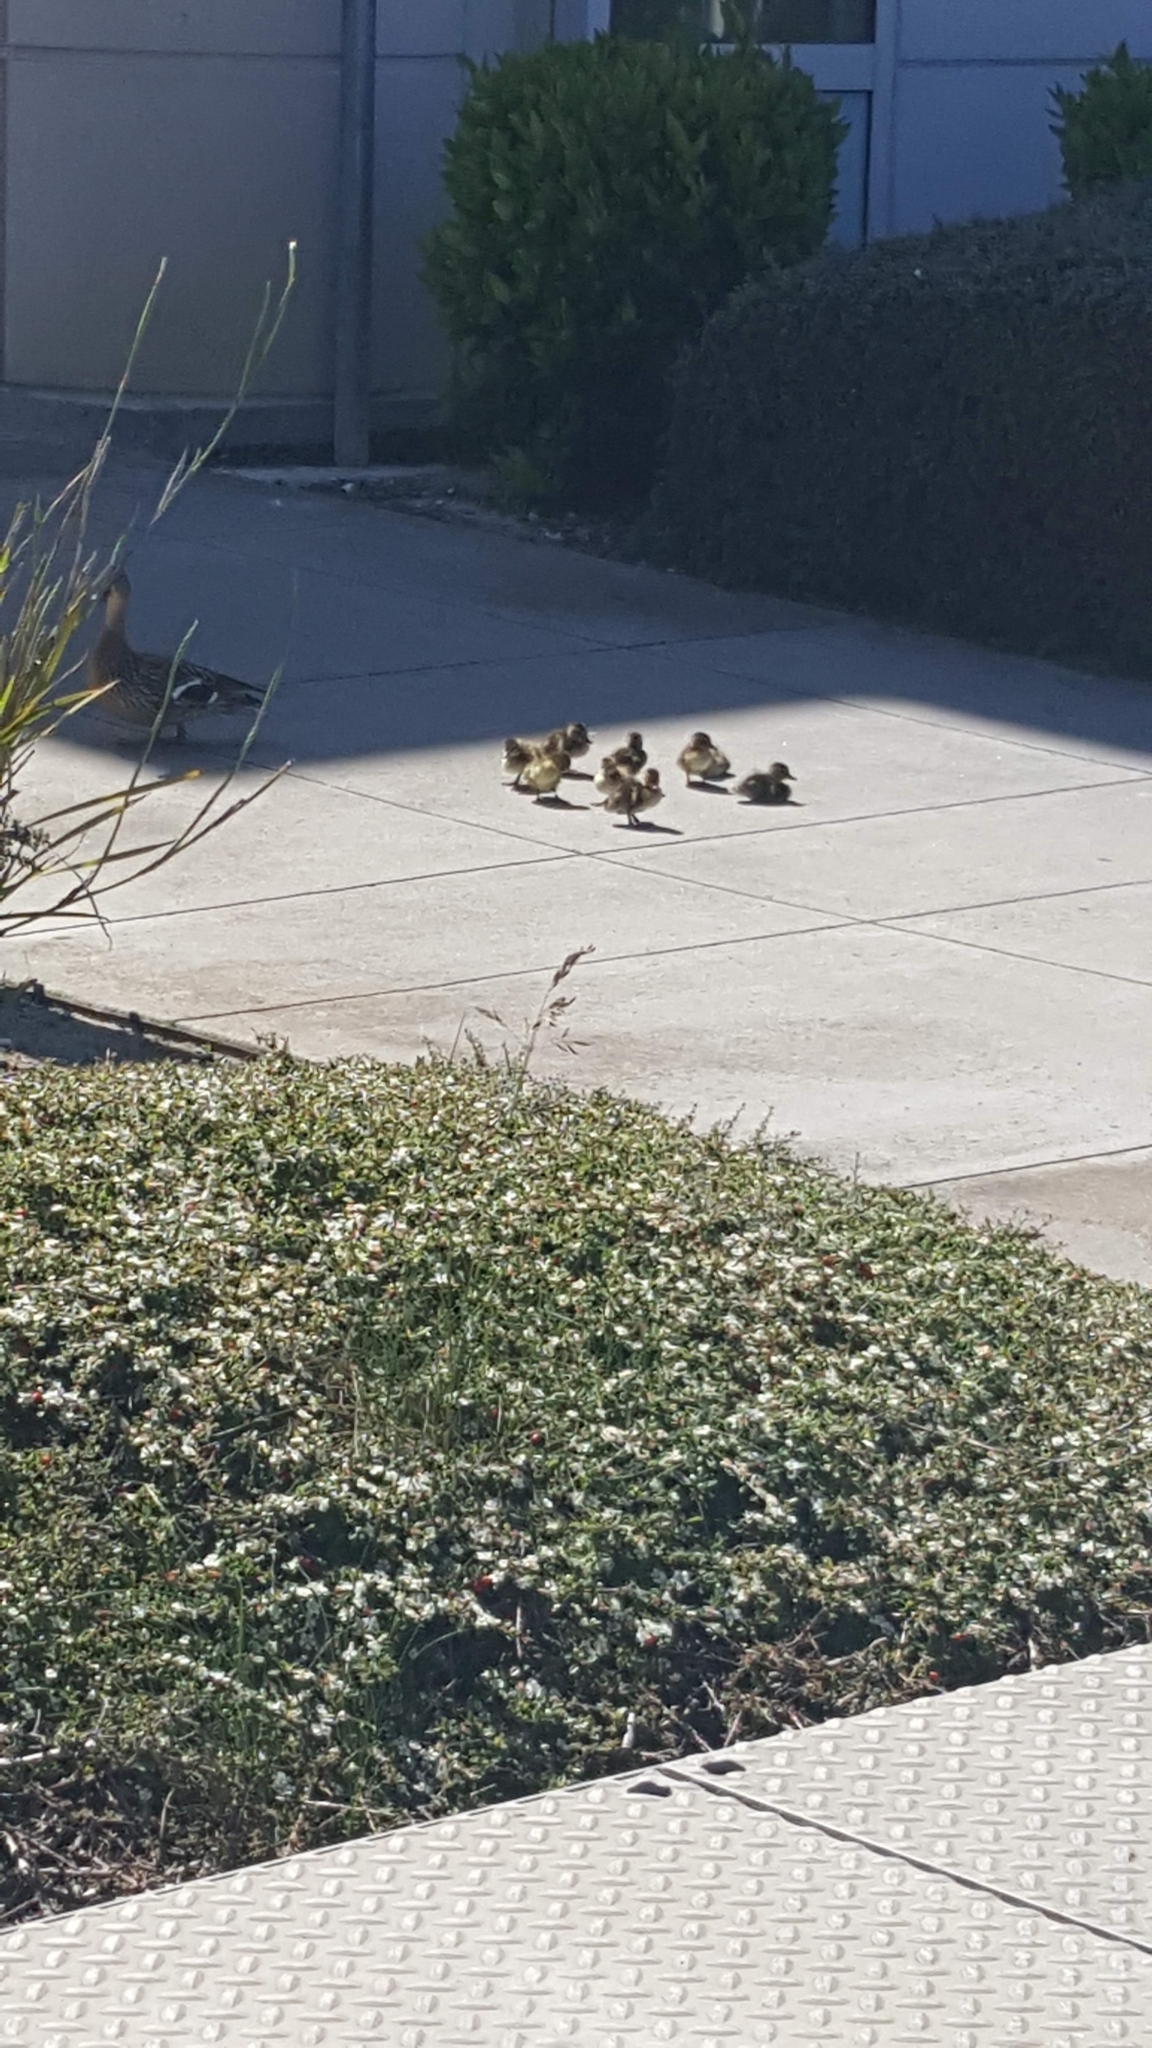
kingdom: Animalia
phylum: Chordata
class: Aves
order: Anseriformes
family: Anatidae
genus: Anas
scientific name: Anas platyrhynchos
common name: Mallard
